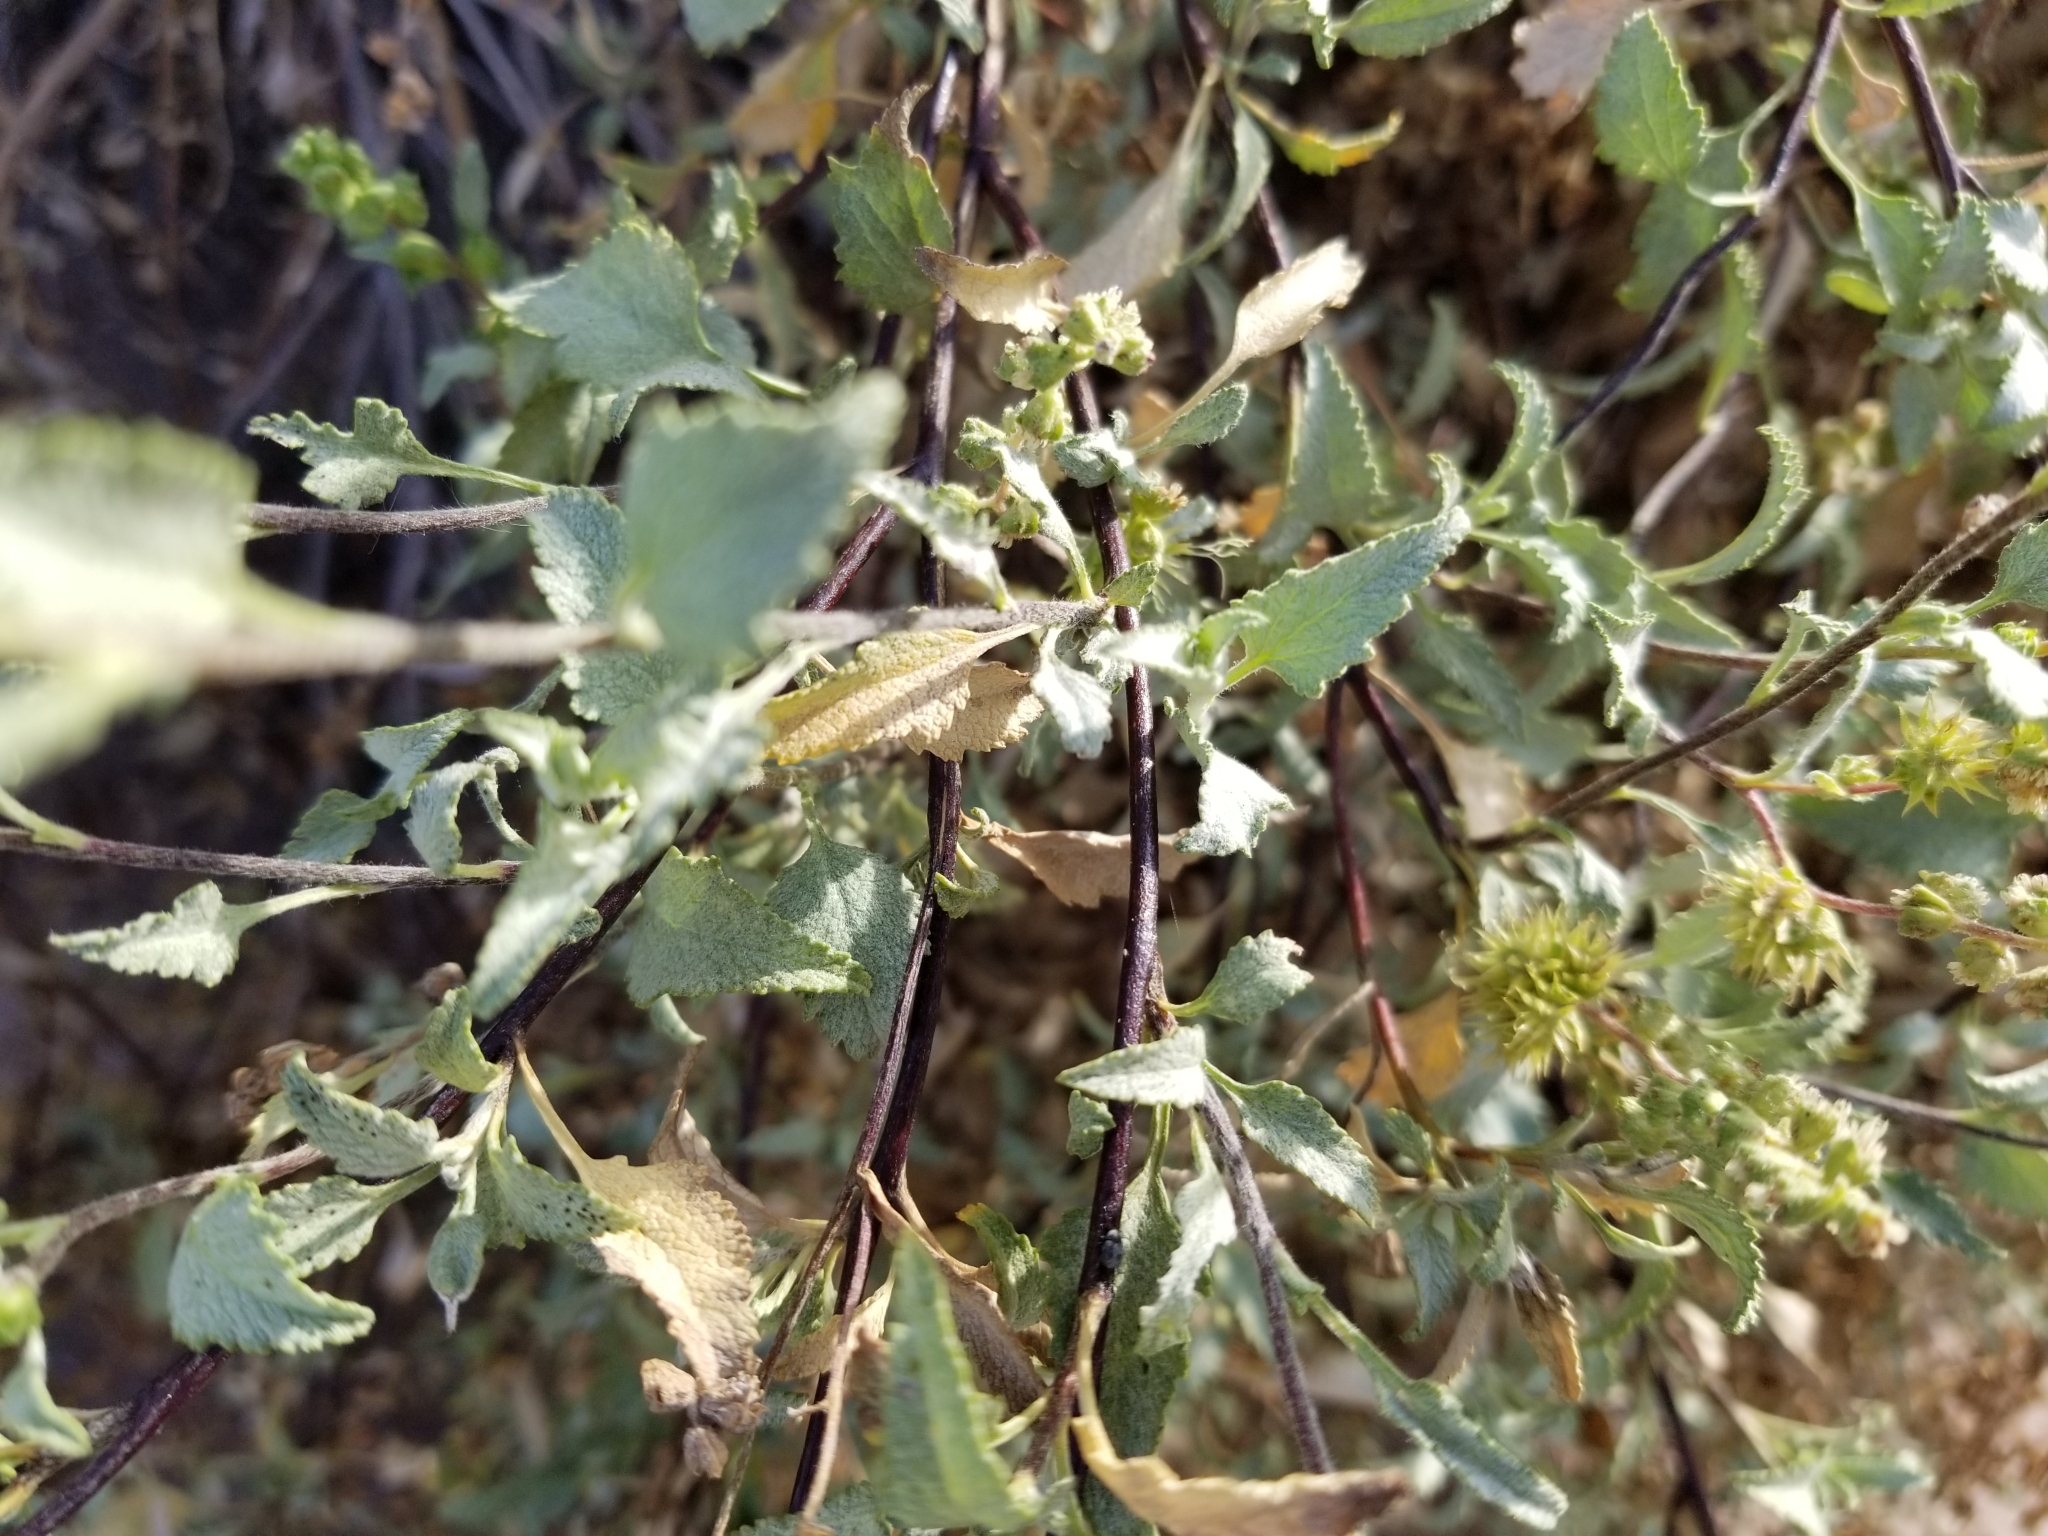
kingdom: Plantae
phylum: Tracheophyta
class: Magnoliopsida
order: Asterales
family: Asteraceae
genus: Ambrosia
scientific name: Ambrosia deltoidea
